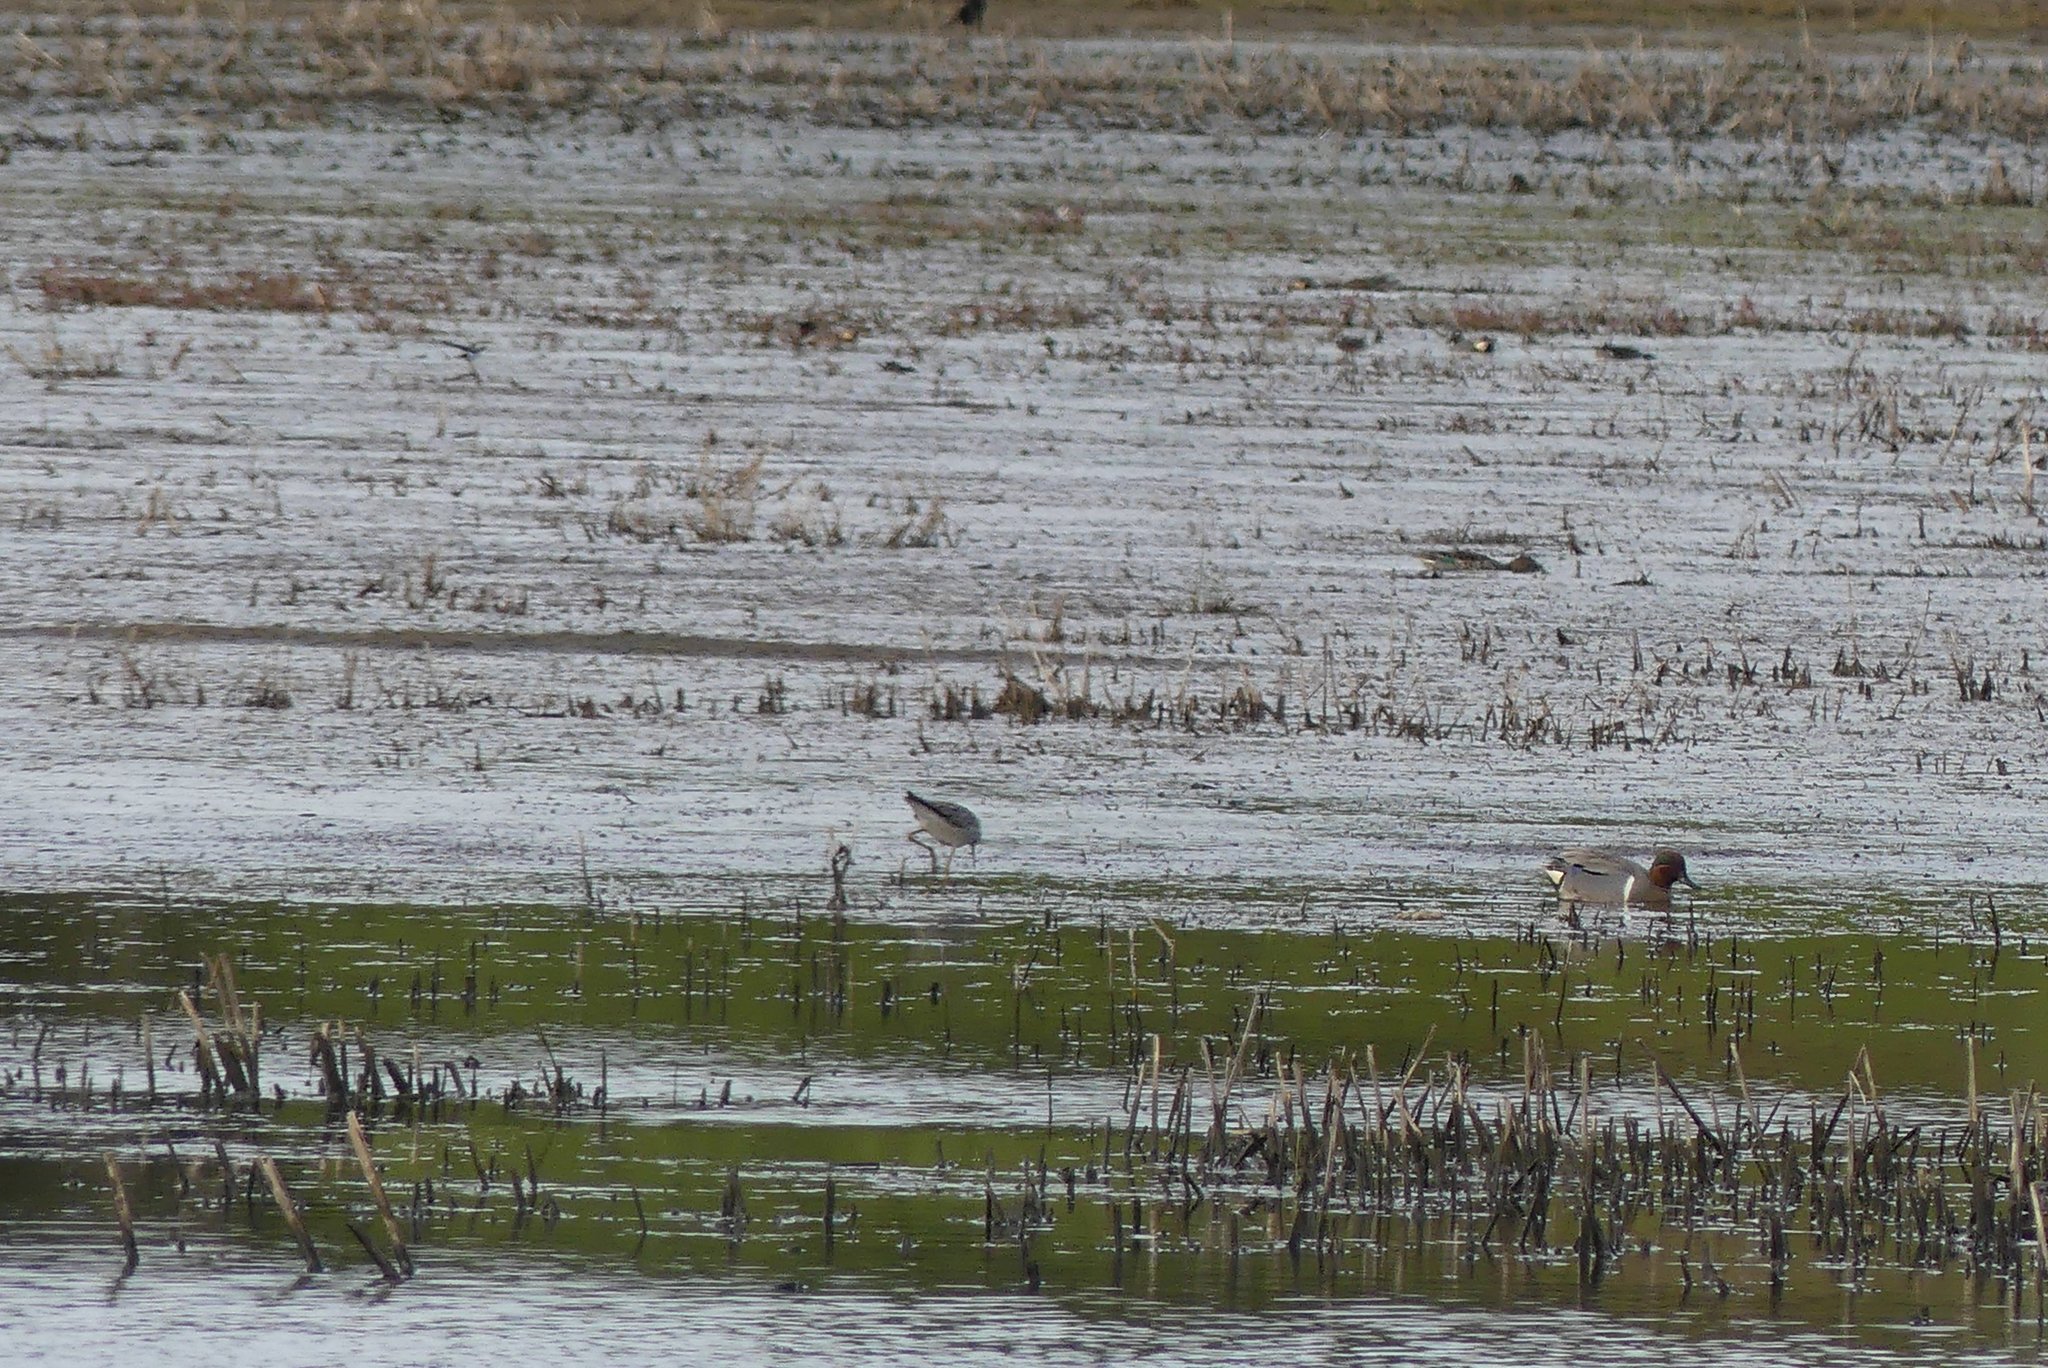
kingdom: Animalia
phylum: Chordata
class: Aves
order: Charadriiformes
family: Scolopacidae
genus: Tringa
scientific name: Tringa melanoleuca
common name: Greater yellowlegs
